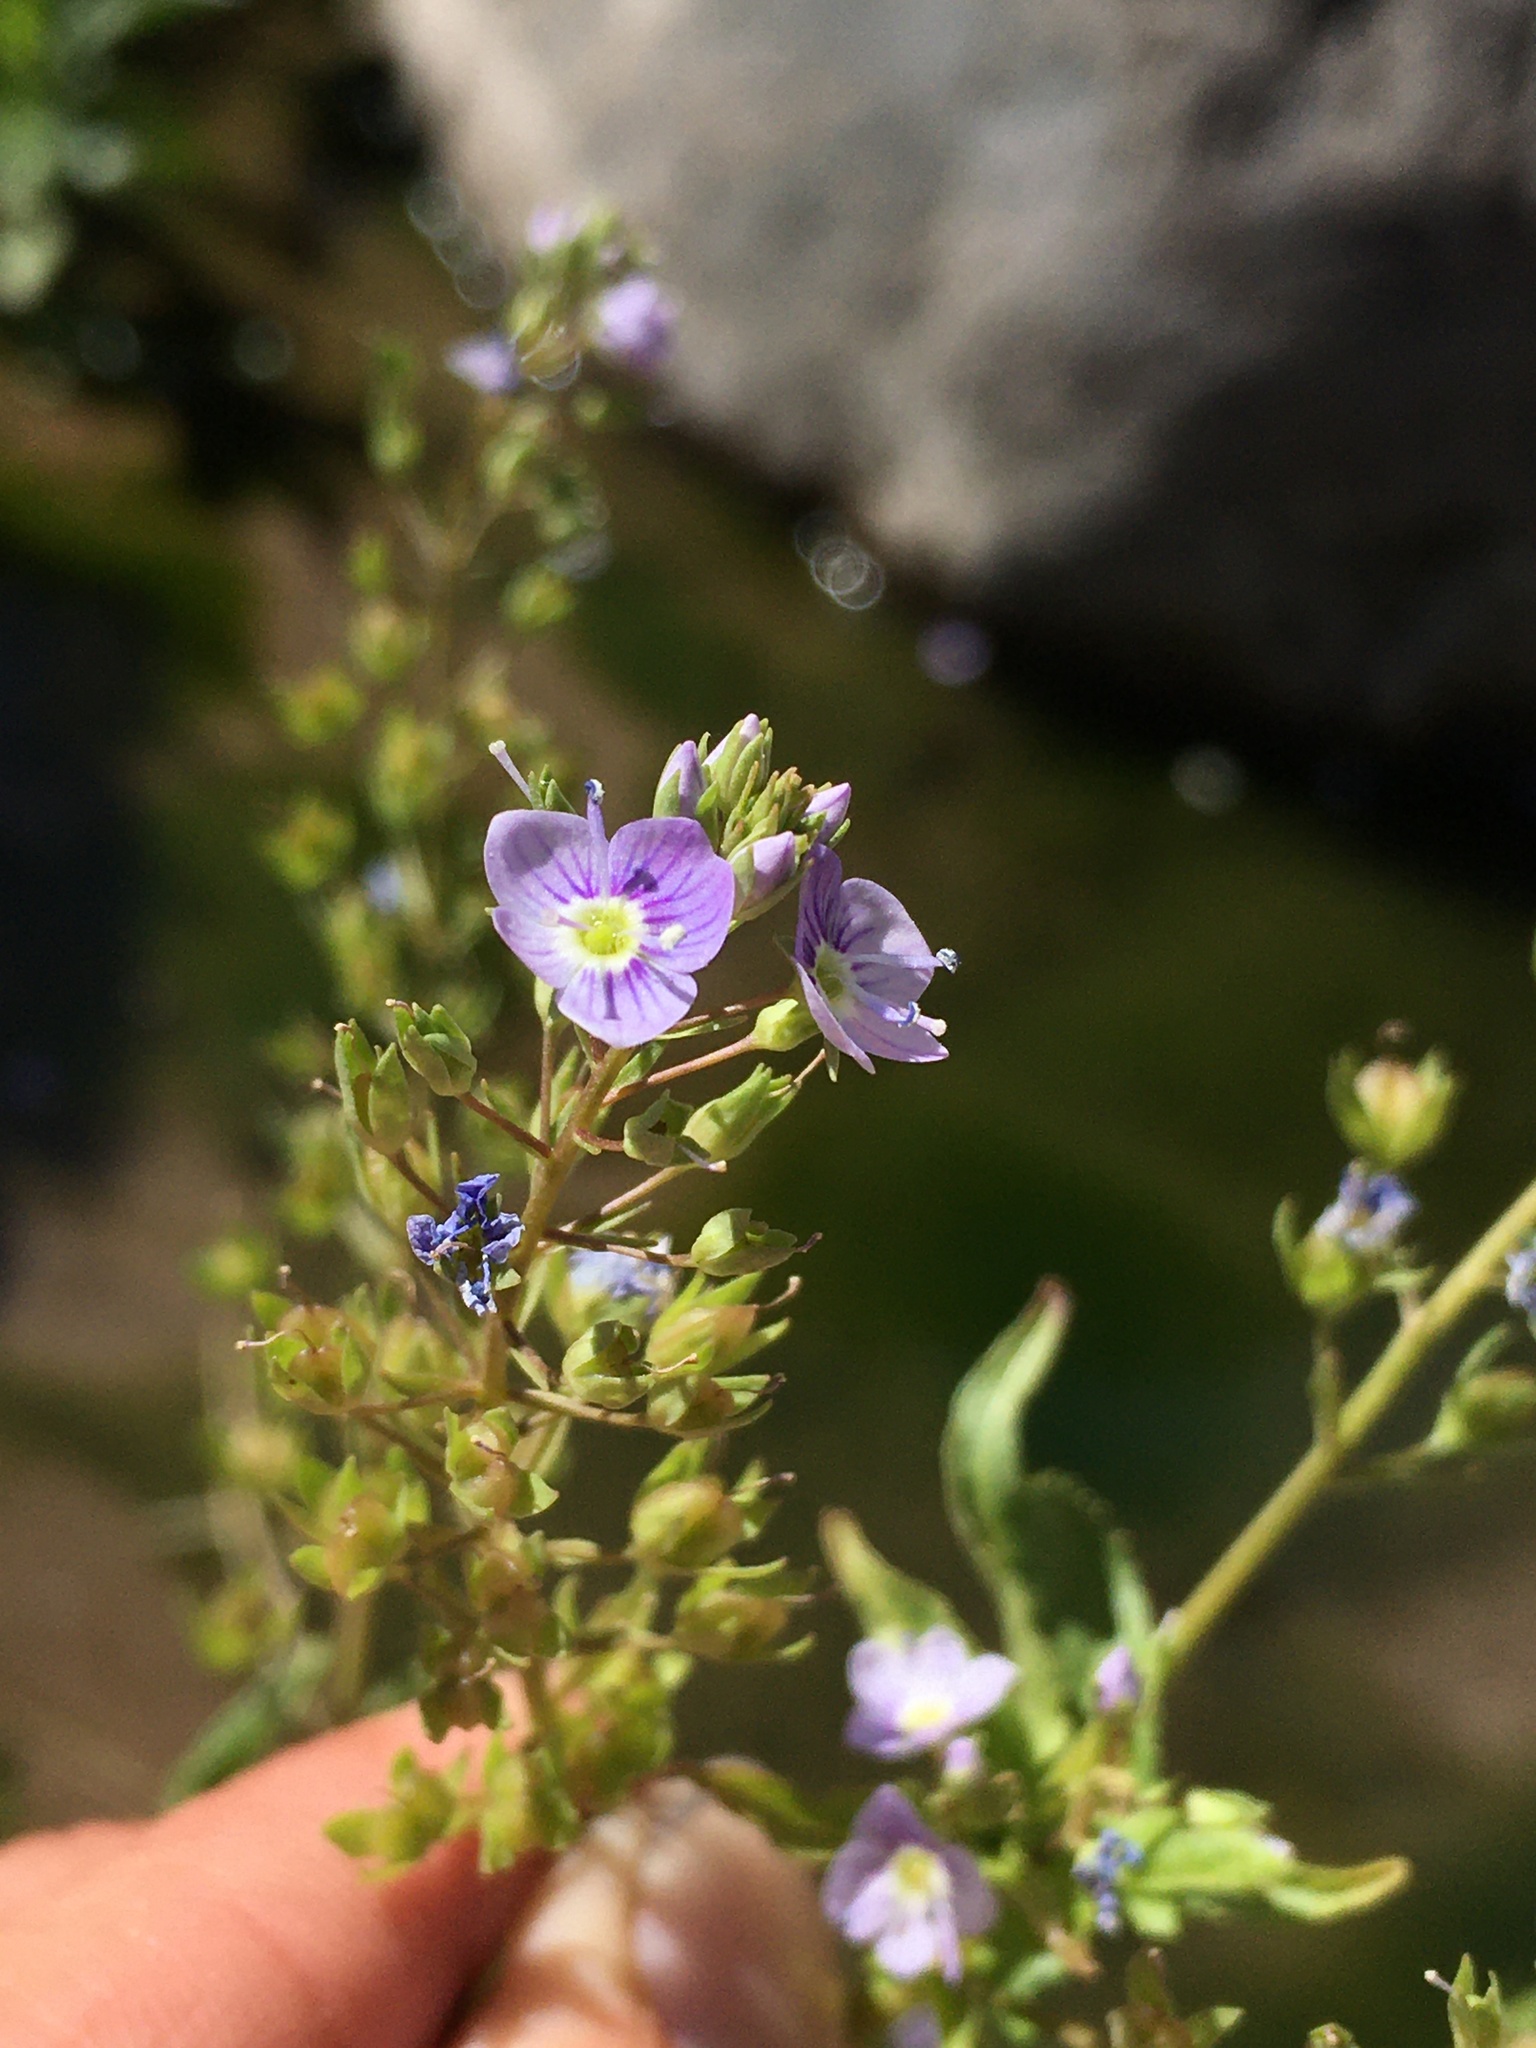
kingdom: Plantae
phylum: Tracheophyta
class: Magnoliopsida
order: Lamiales
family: Plantaginaceae
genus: Veronica
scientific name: Veronica anagallis-aquatica
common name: Water speedwell
